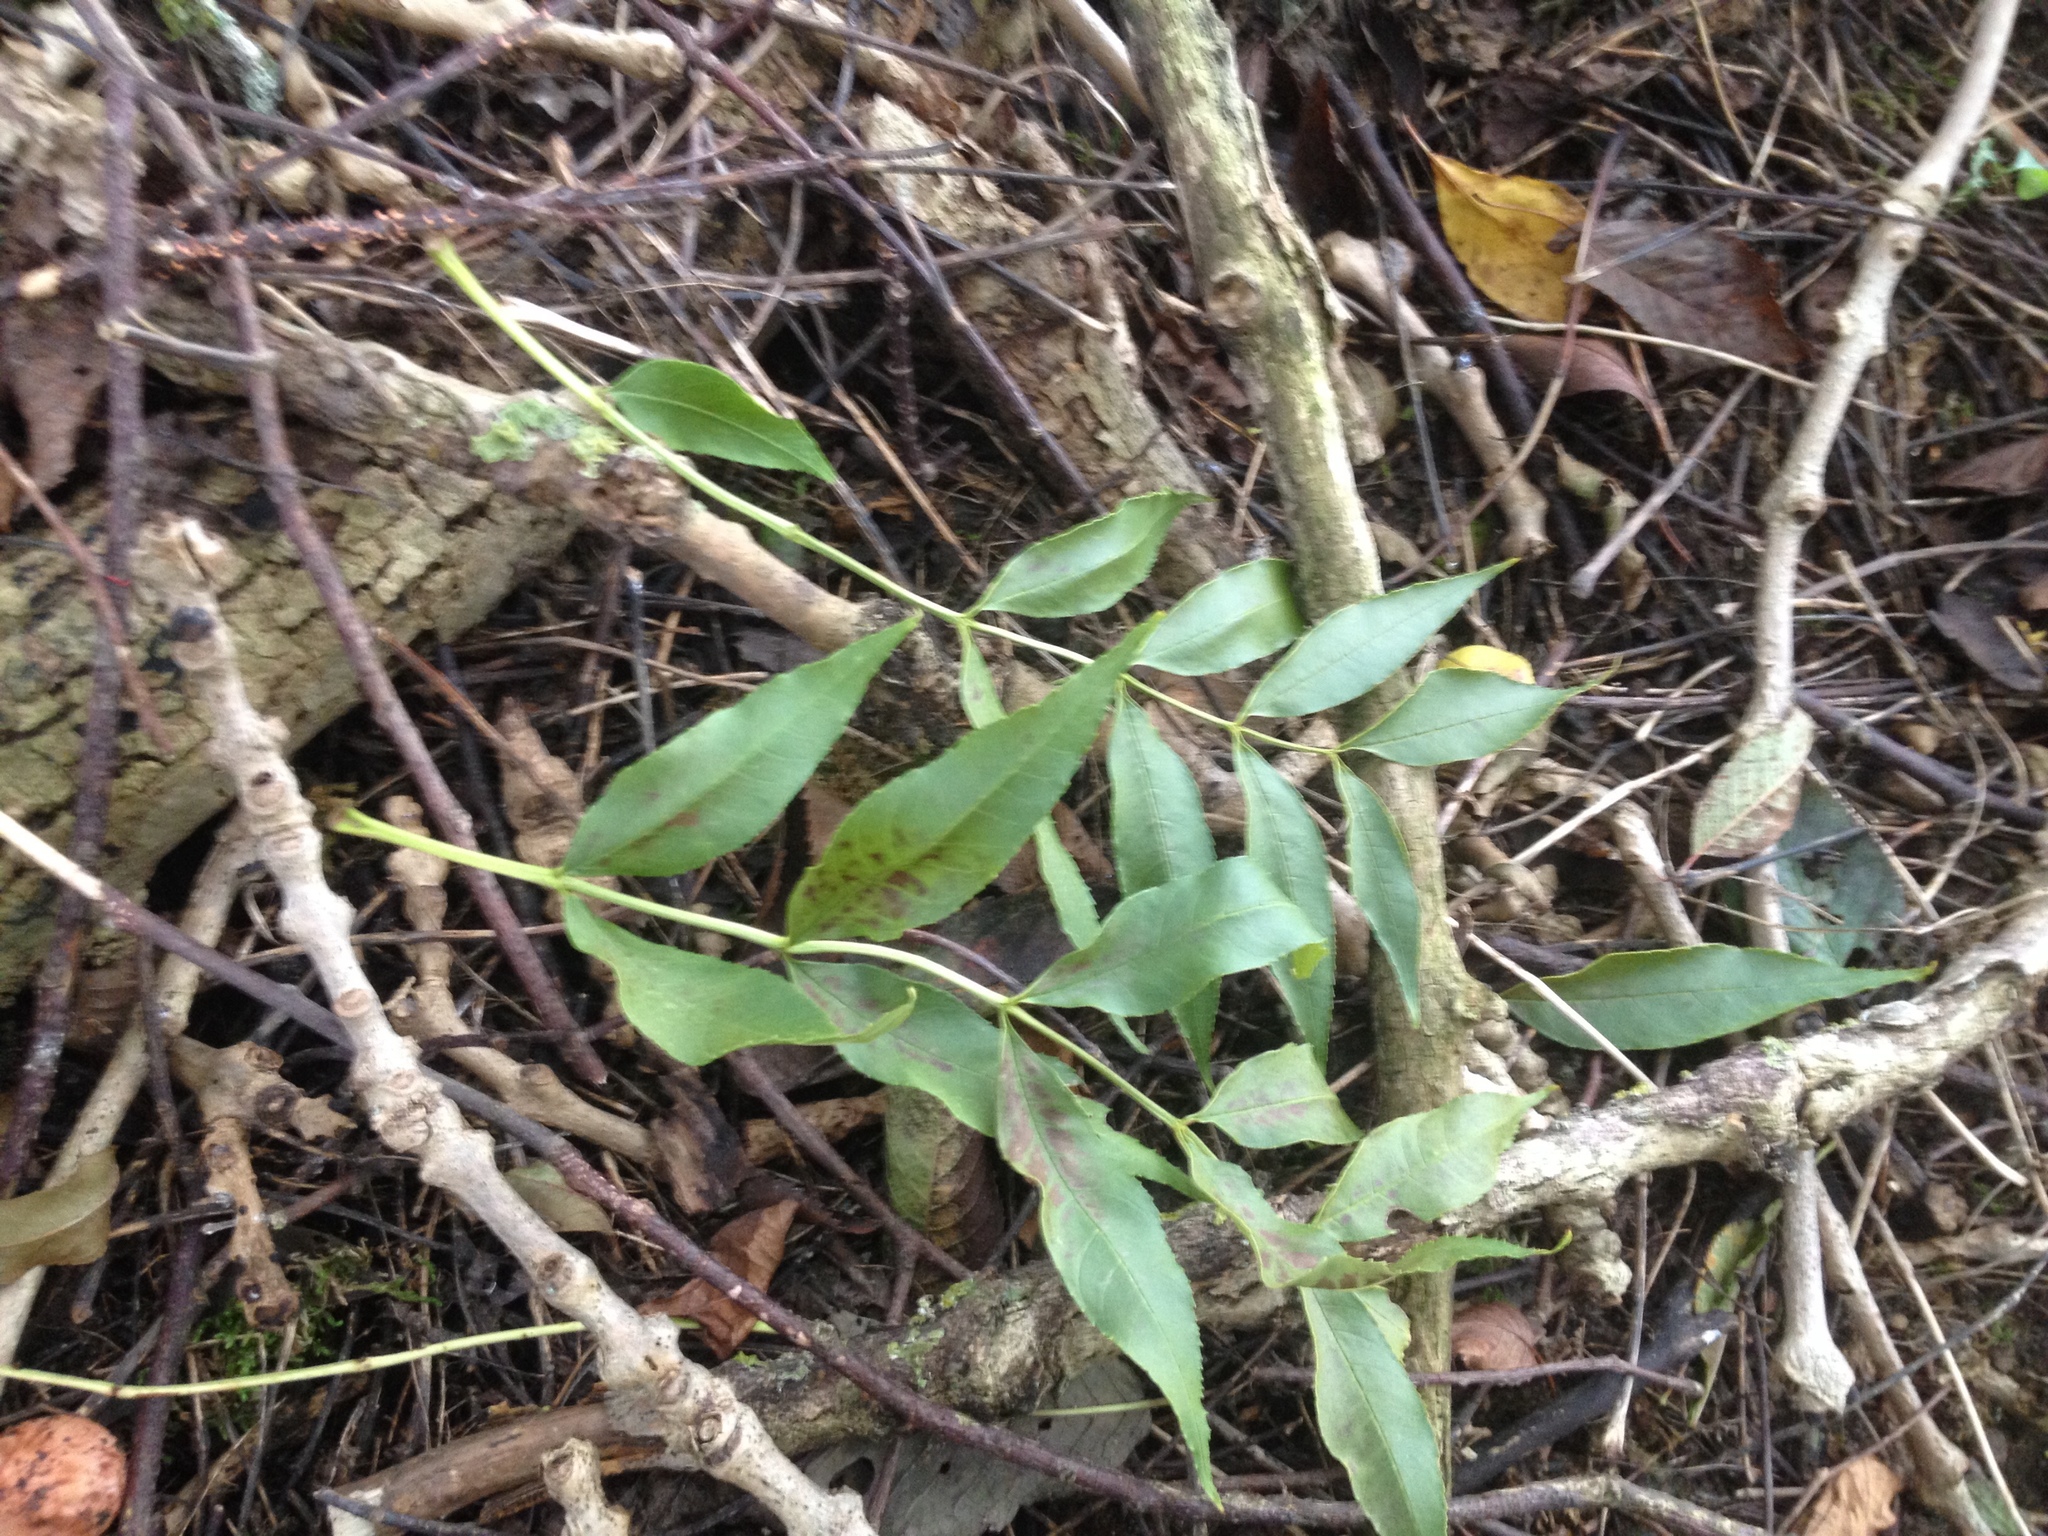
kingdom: Plantae
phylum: Tracheophyta
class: Magnoliopsida
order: Lamiales
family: Oleaceae
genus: Fraxinus
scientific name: Fraxinus excelsior
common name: European ash
